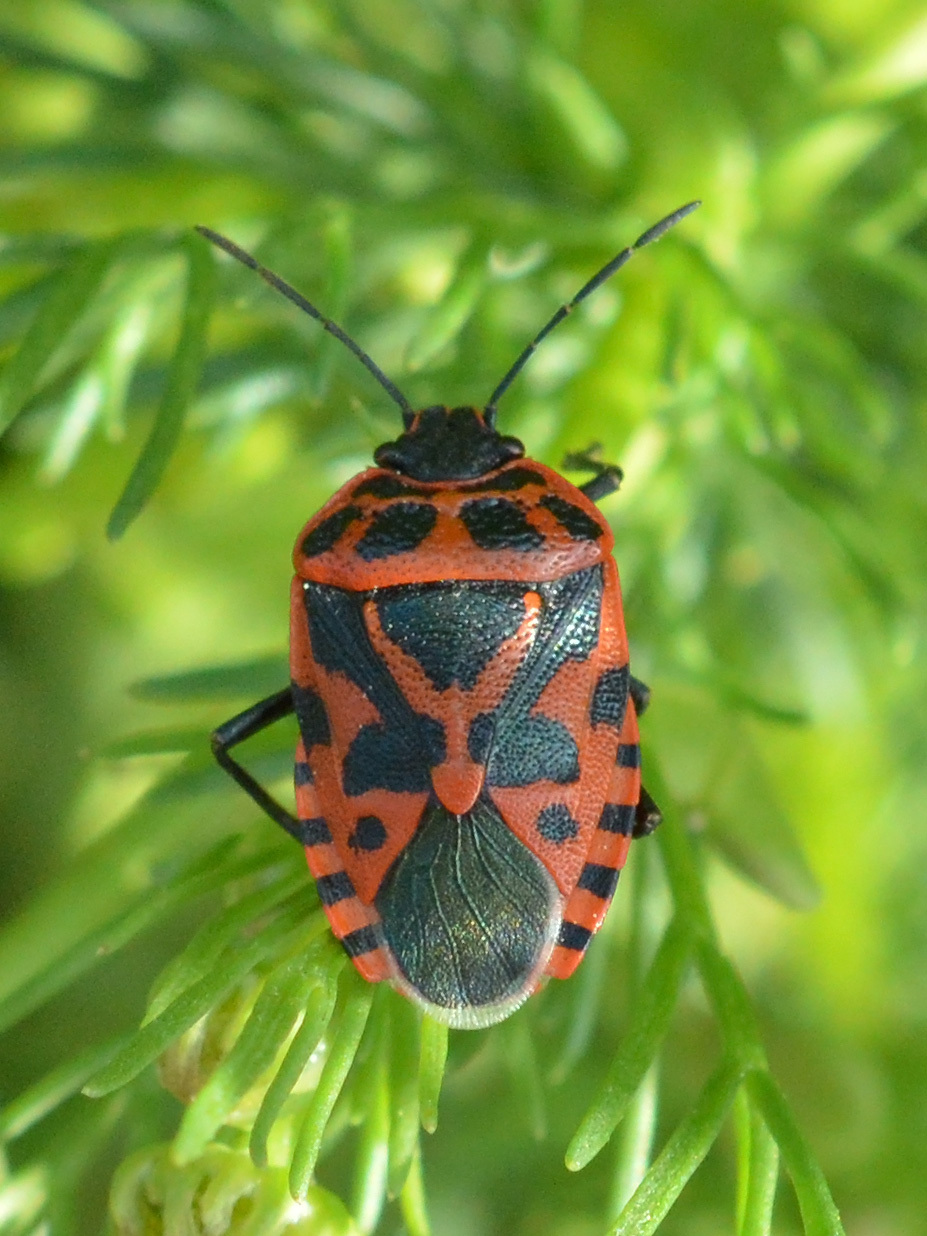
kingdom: Animalia
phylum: Arthropoda
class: Insecta
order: Hemiptera
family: Pentatomidae
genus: Eurydema
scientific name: Eurydema ventralis
